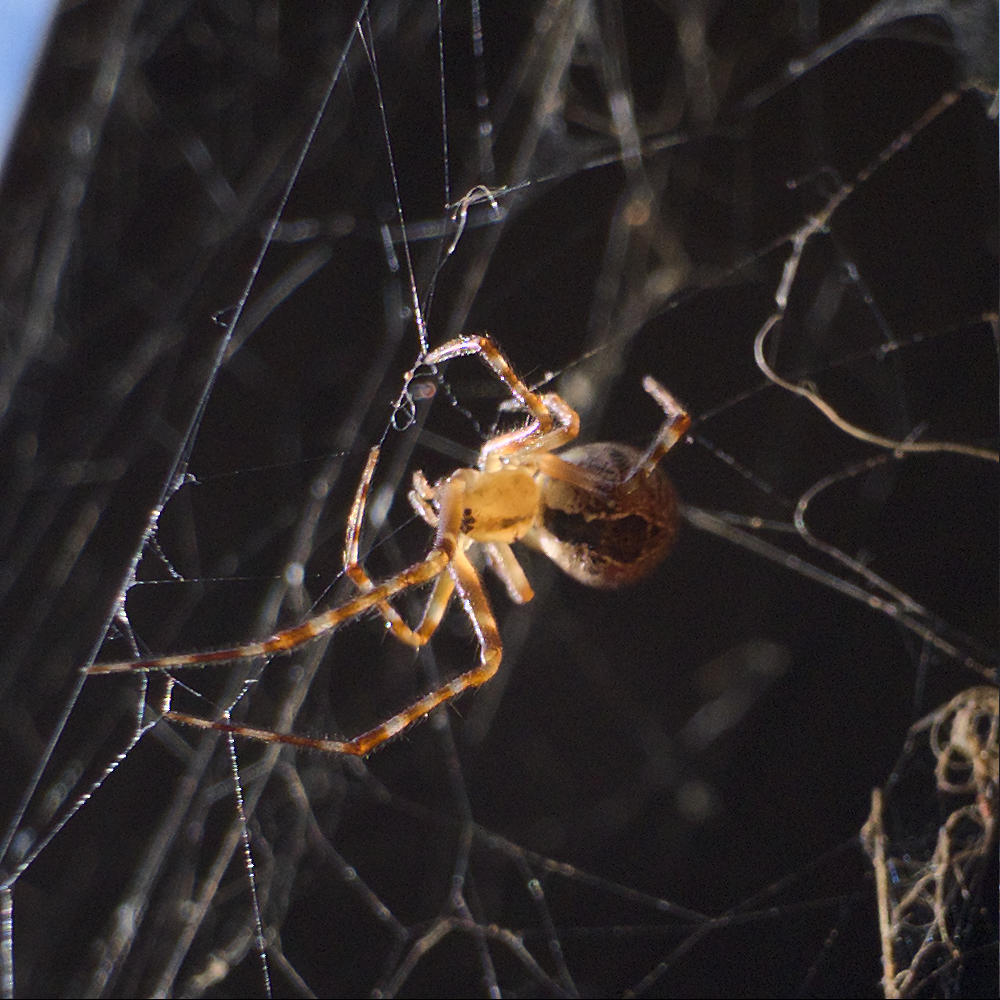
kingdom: Animalia
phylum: Arthropoda
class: Arachnida
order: Araneae
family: Theridiidae
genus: Cryptachaea
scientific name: Cryptachaea veruculata
